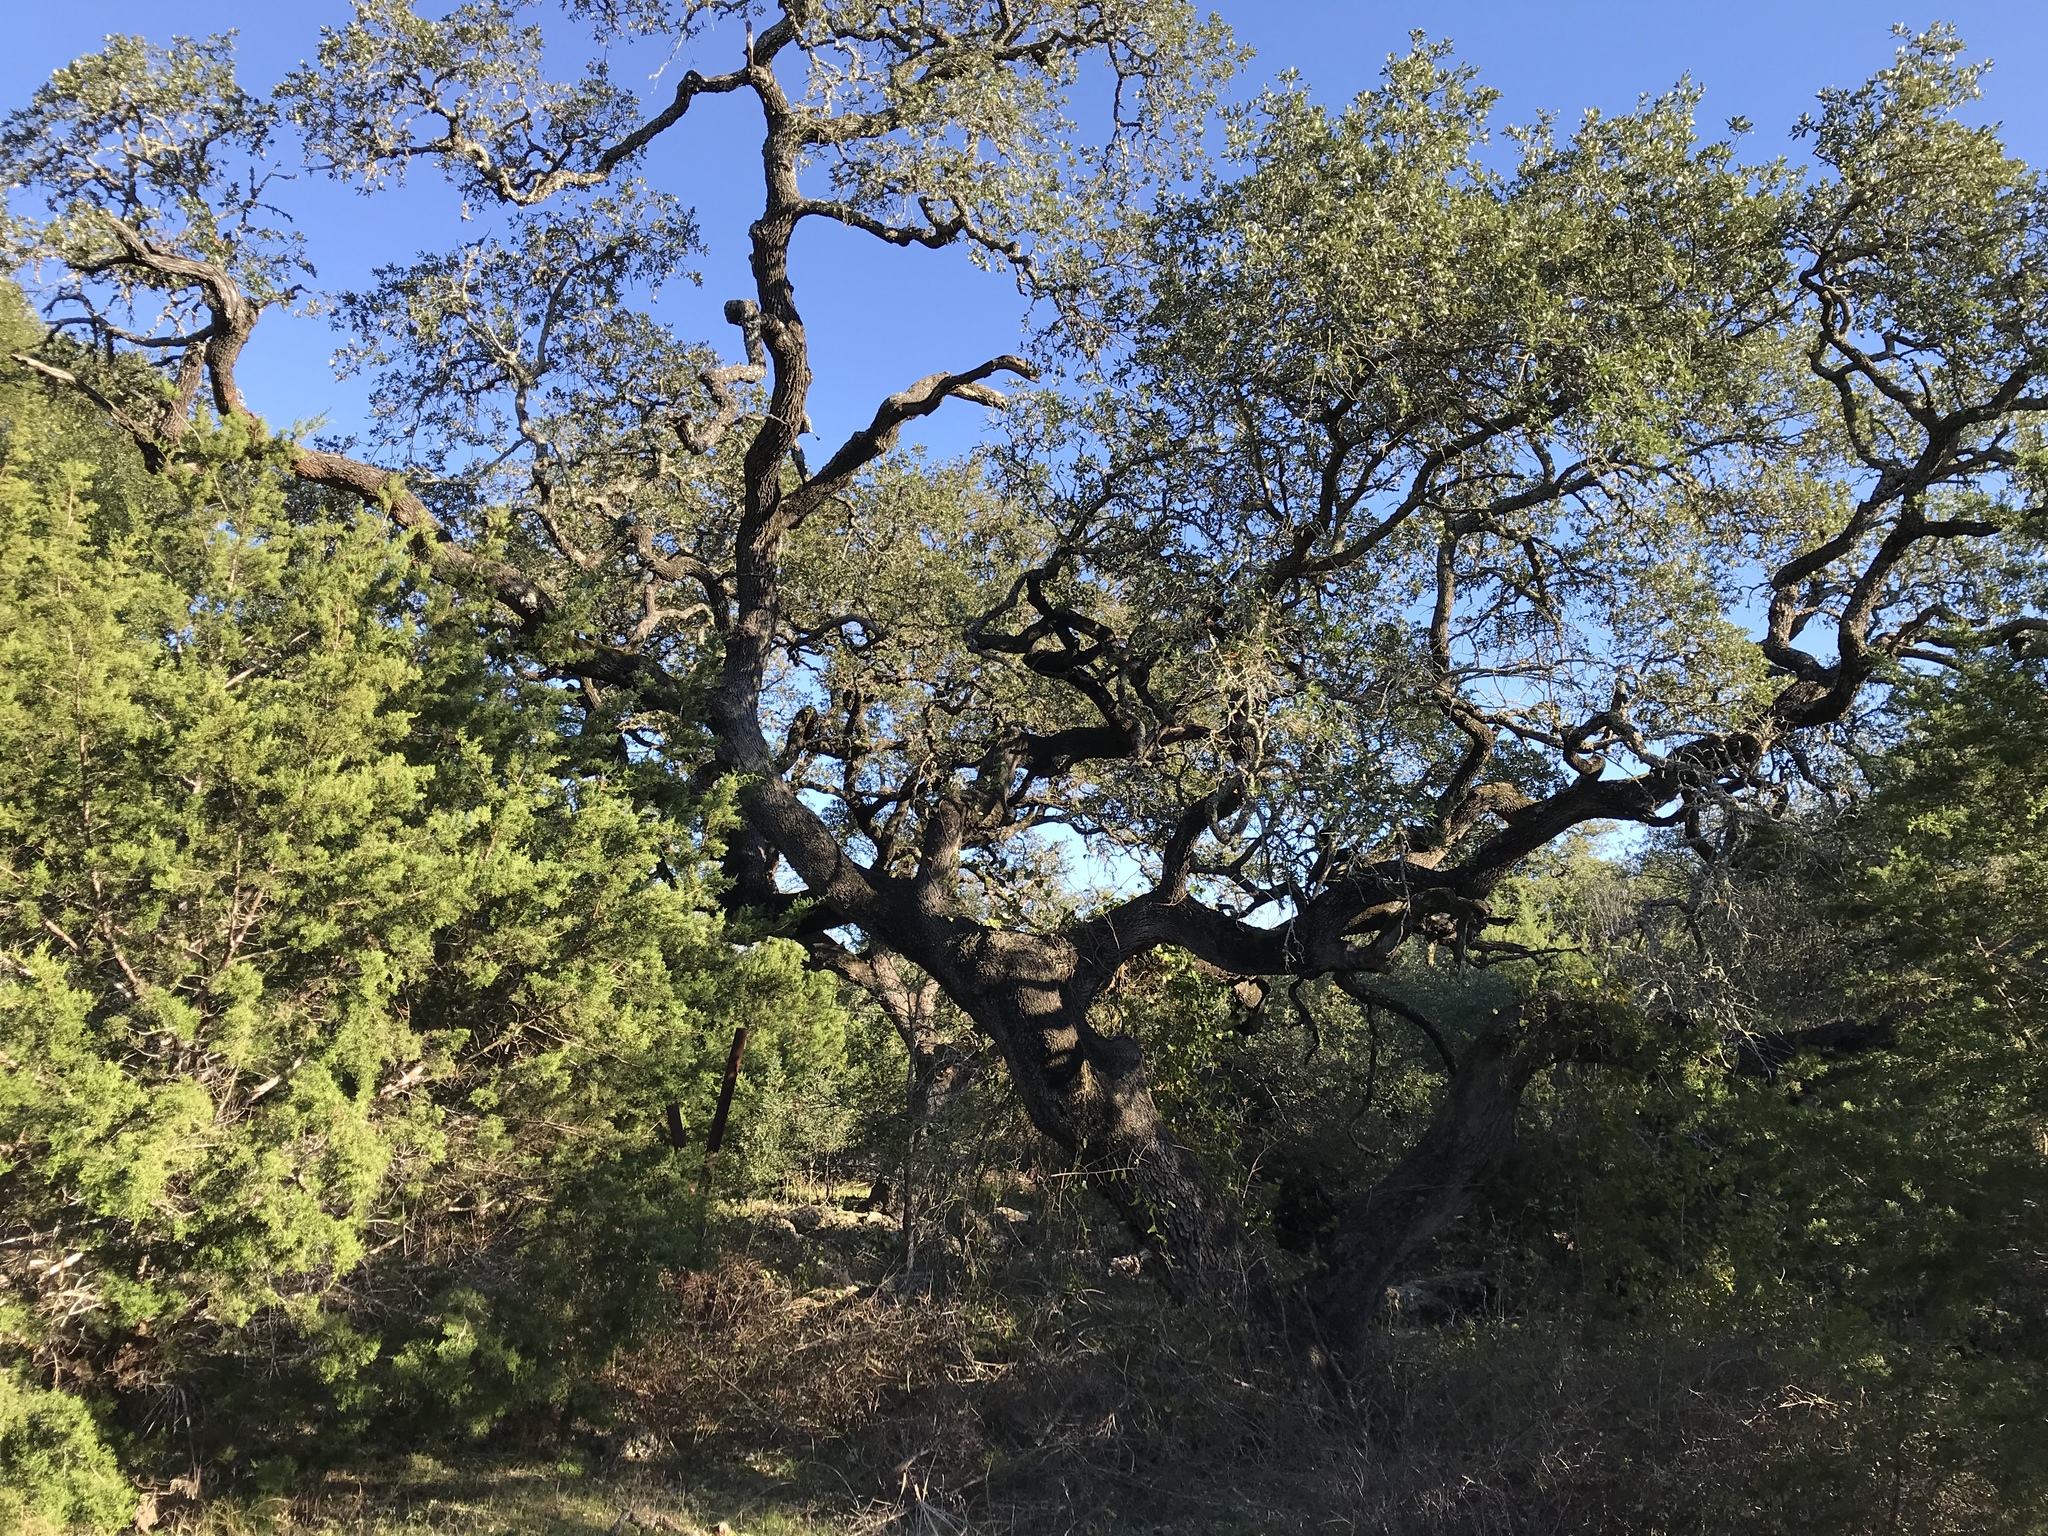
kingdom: Plantae
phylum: Tracheophyta
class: Magnoliopsida
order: Fagales
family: Fagaceae
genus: Quercus
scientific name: Quercus fusiformis
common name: Texas live oak
